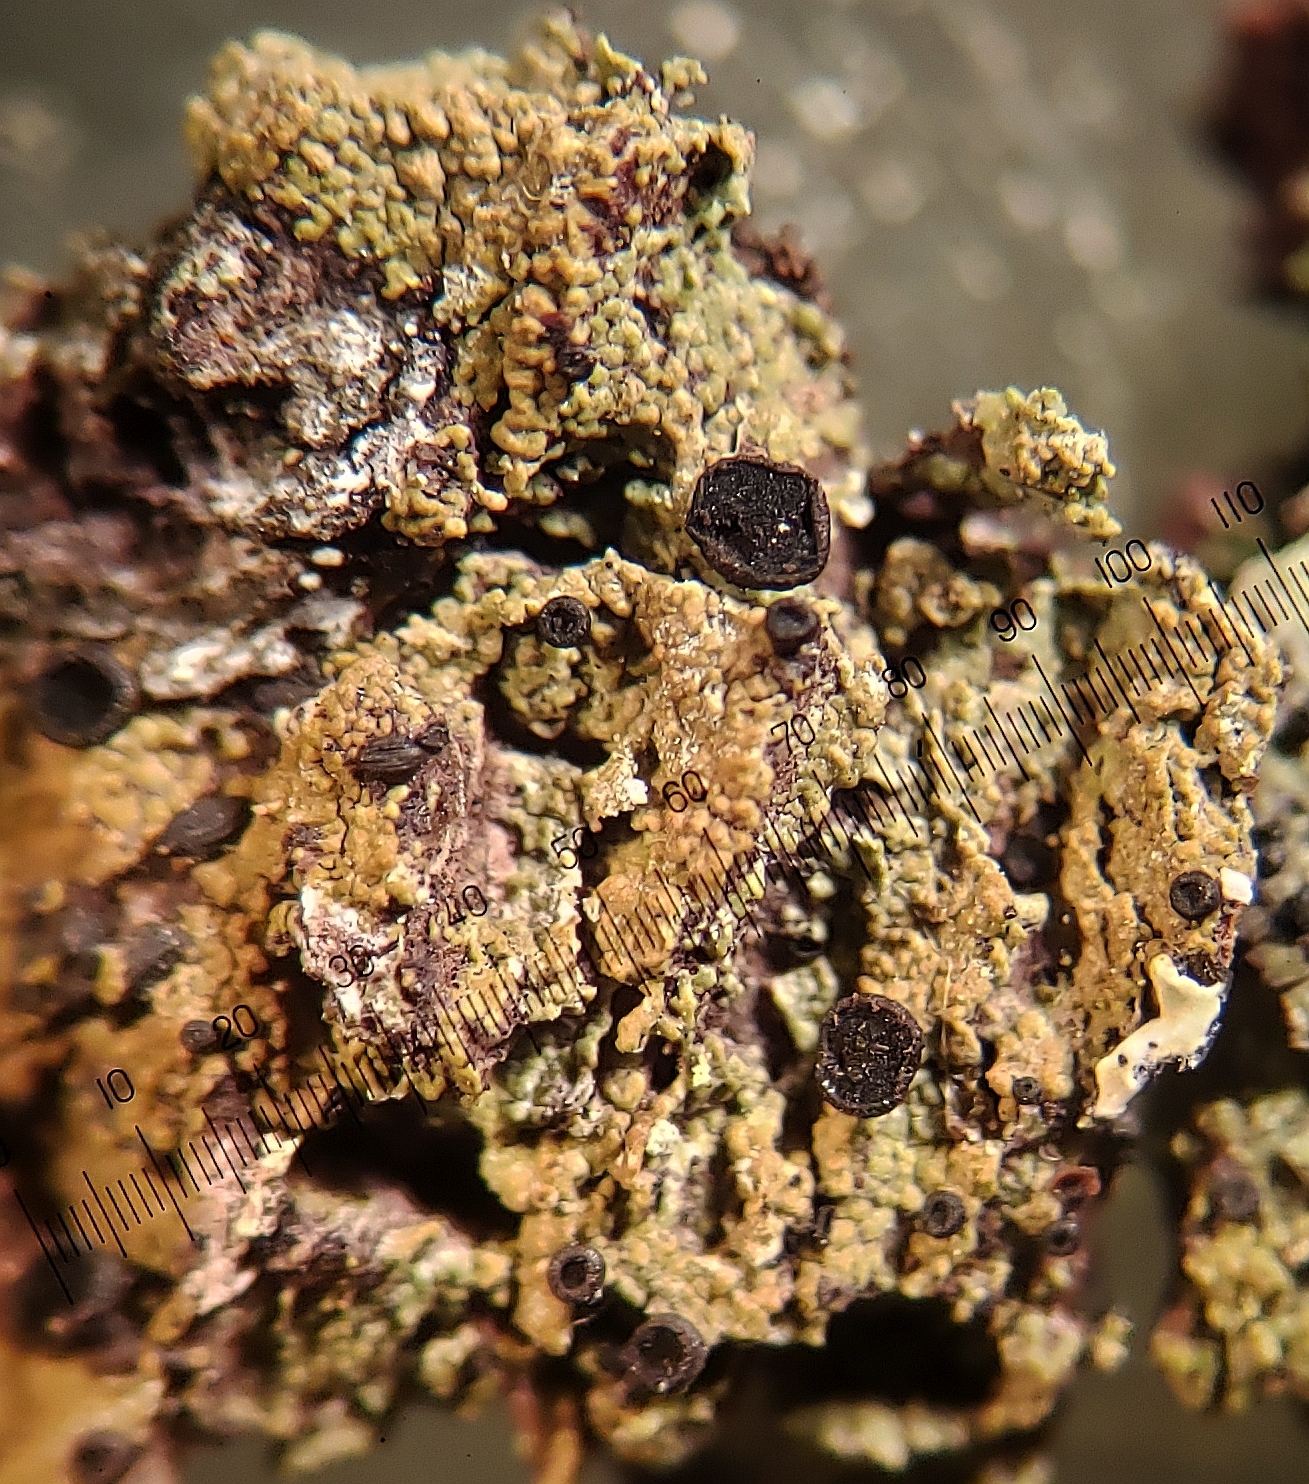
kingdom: Fungi
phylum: Ascomycota
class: Lecanoromycetes
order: Lecideales
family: Lopadiaceae
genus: Lopadium
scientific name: Lopadium disciforme
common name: Urn-disk lichen
